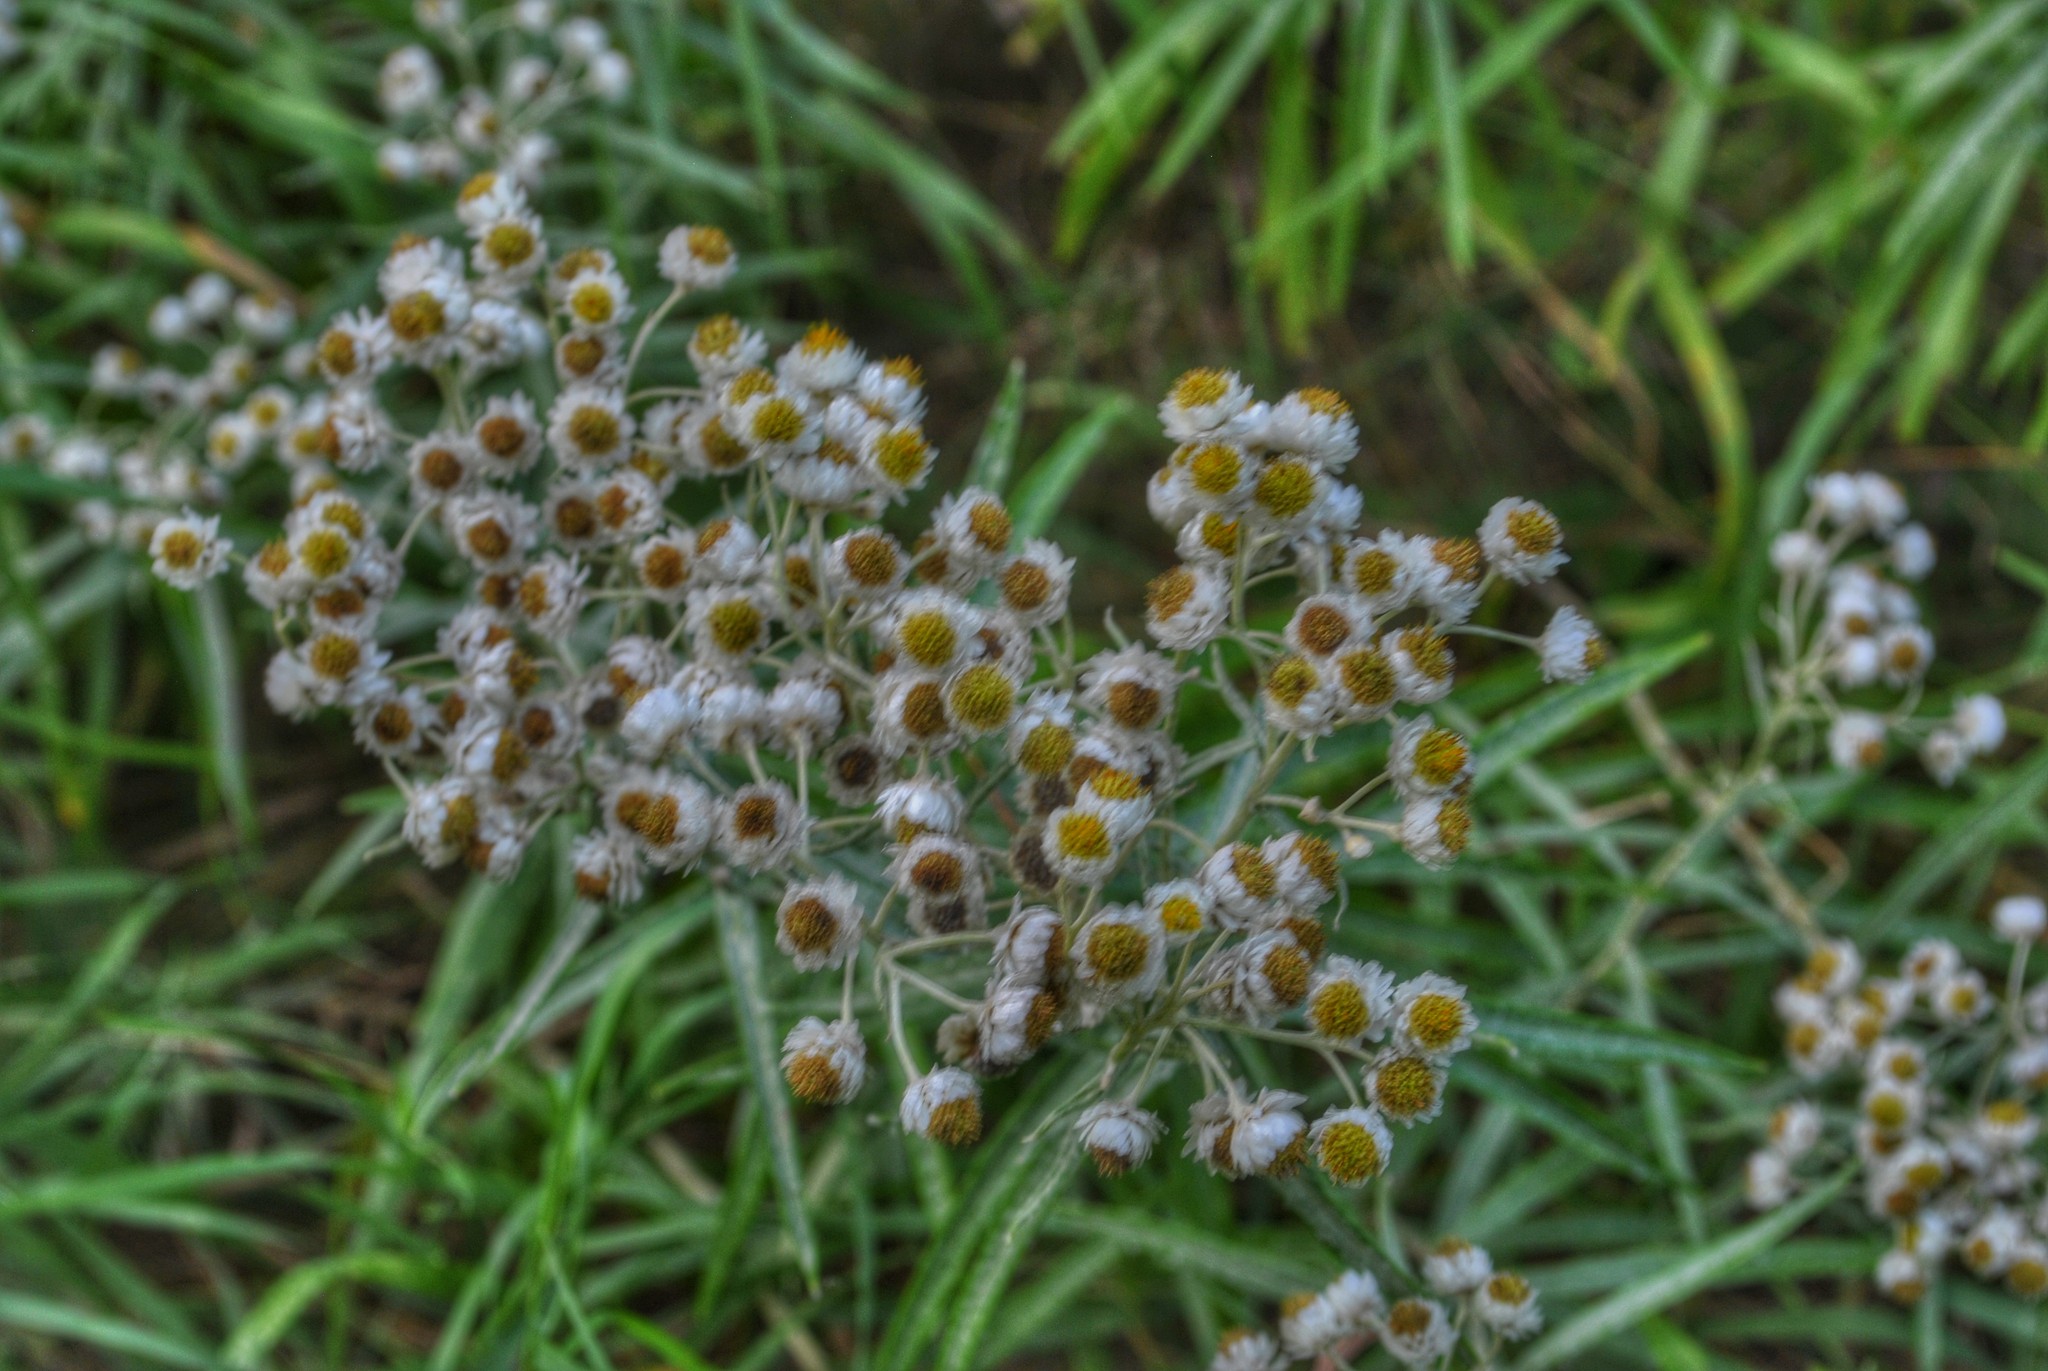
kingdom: Plantae
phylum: Tracheophyta
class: Magnoliopsida
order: Asterales
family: Asteraceae
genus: Anaphalis
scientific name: Anaphalis margaritacea
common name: Pearly everlasting
